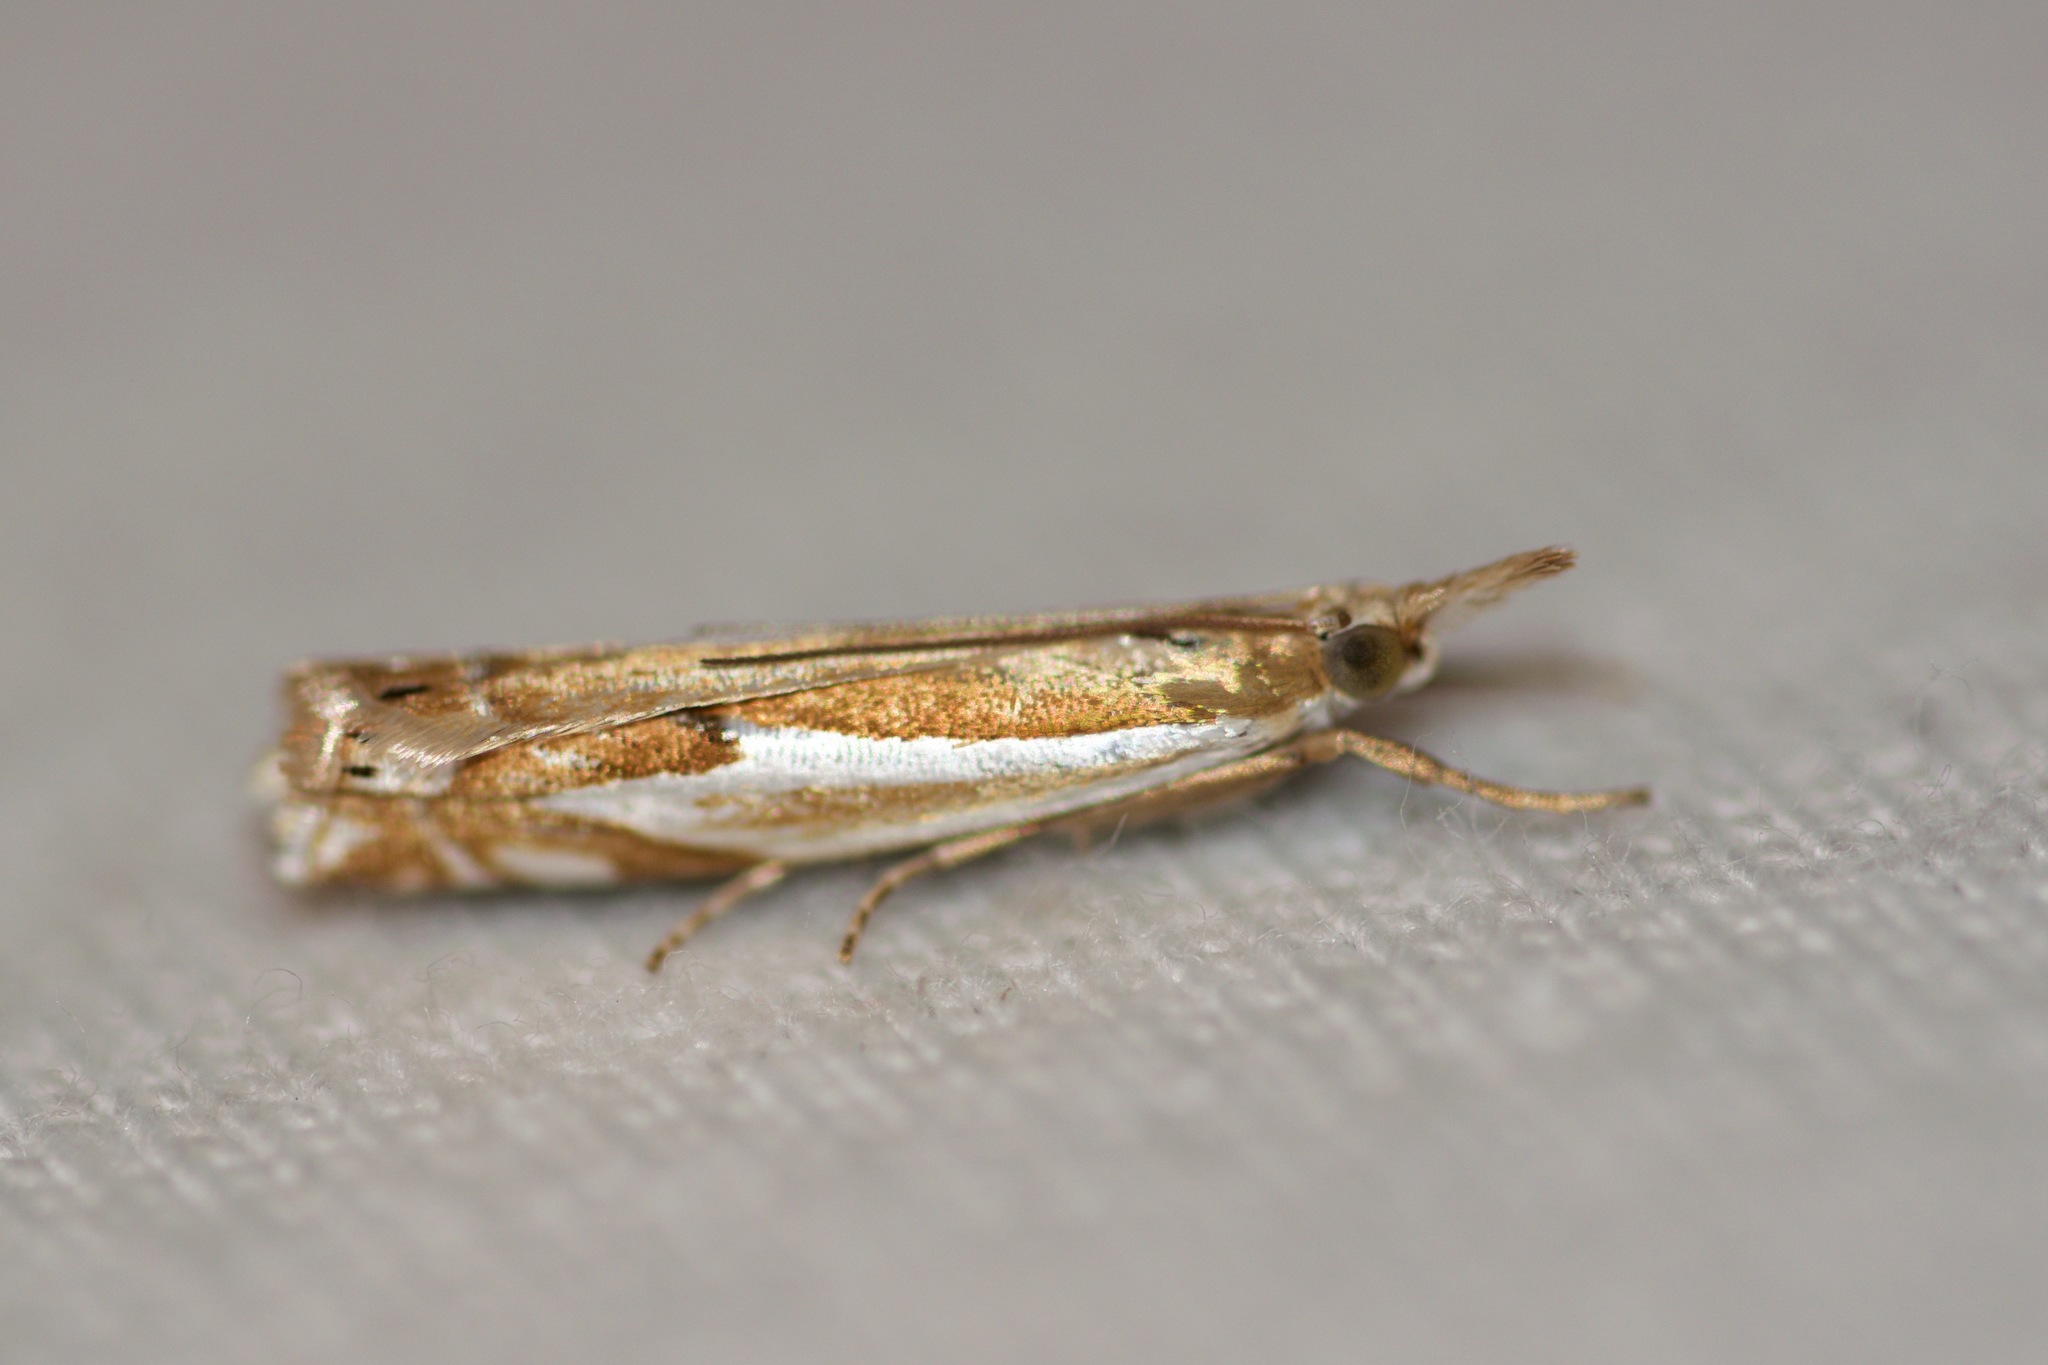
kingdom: Animalia
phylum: Arthropoda
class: Insecta
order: Lepidoptera
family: Crambidae
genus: Crambus
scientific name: Crambus bidens
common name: Forked grass-veneer
